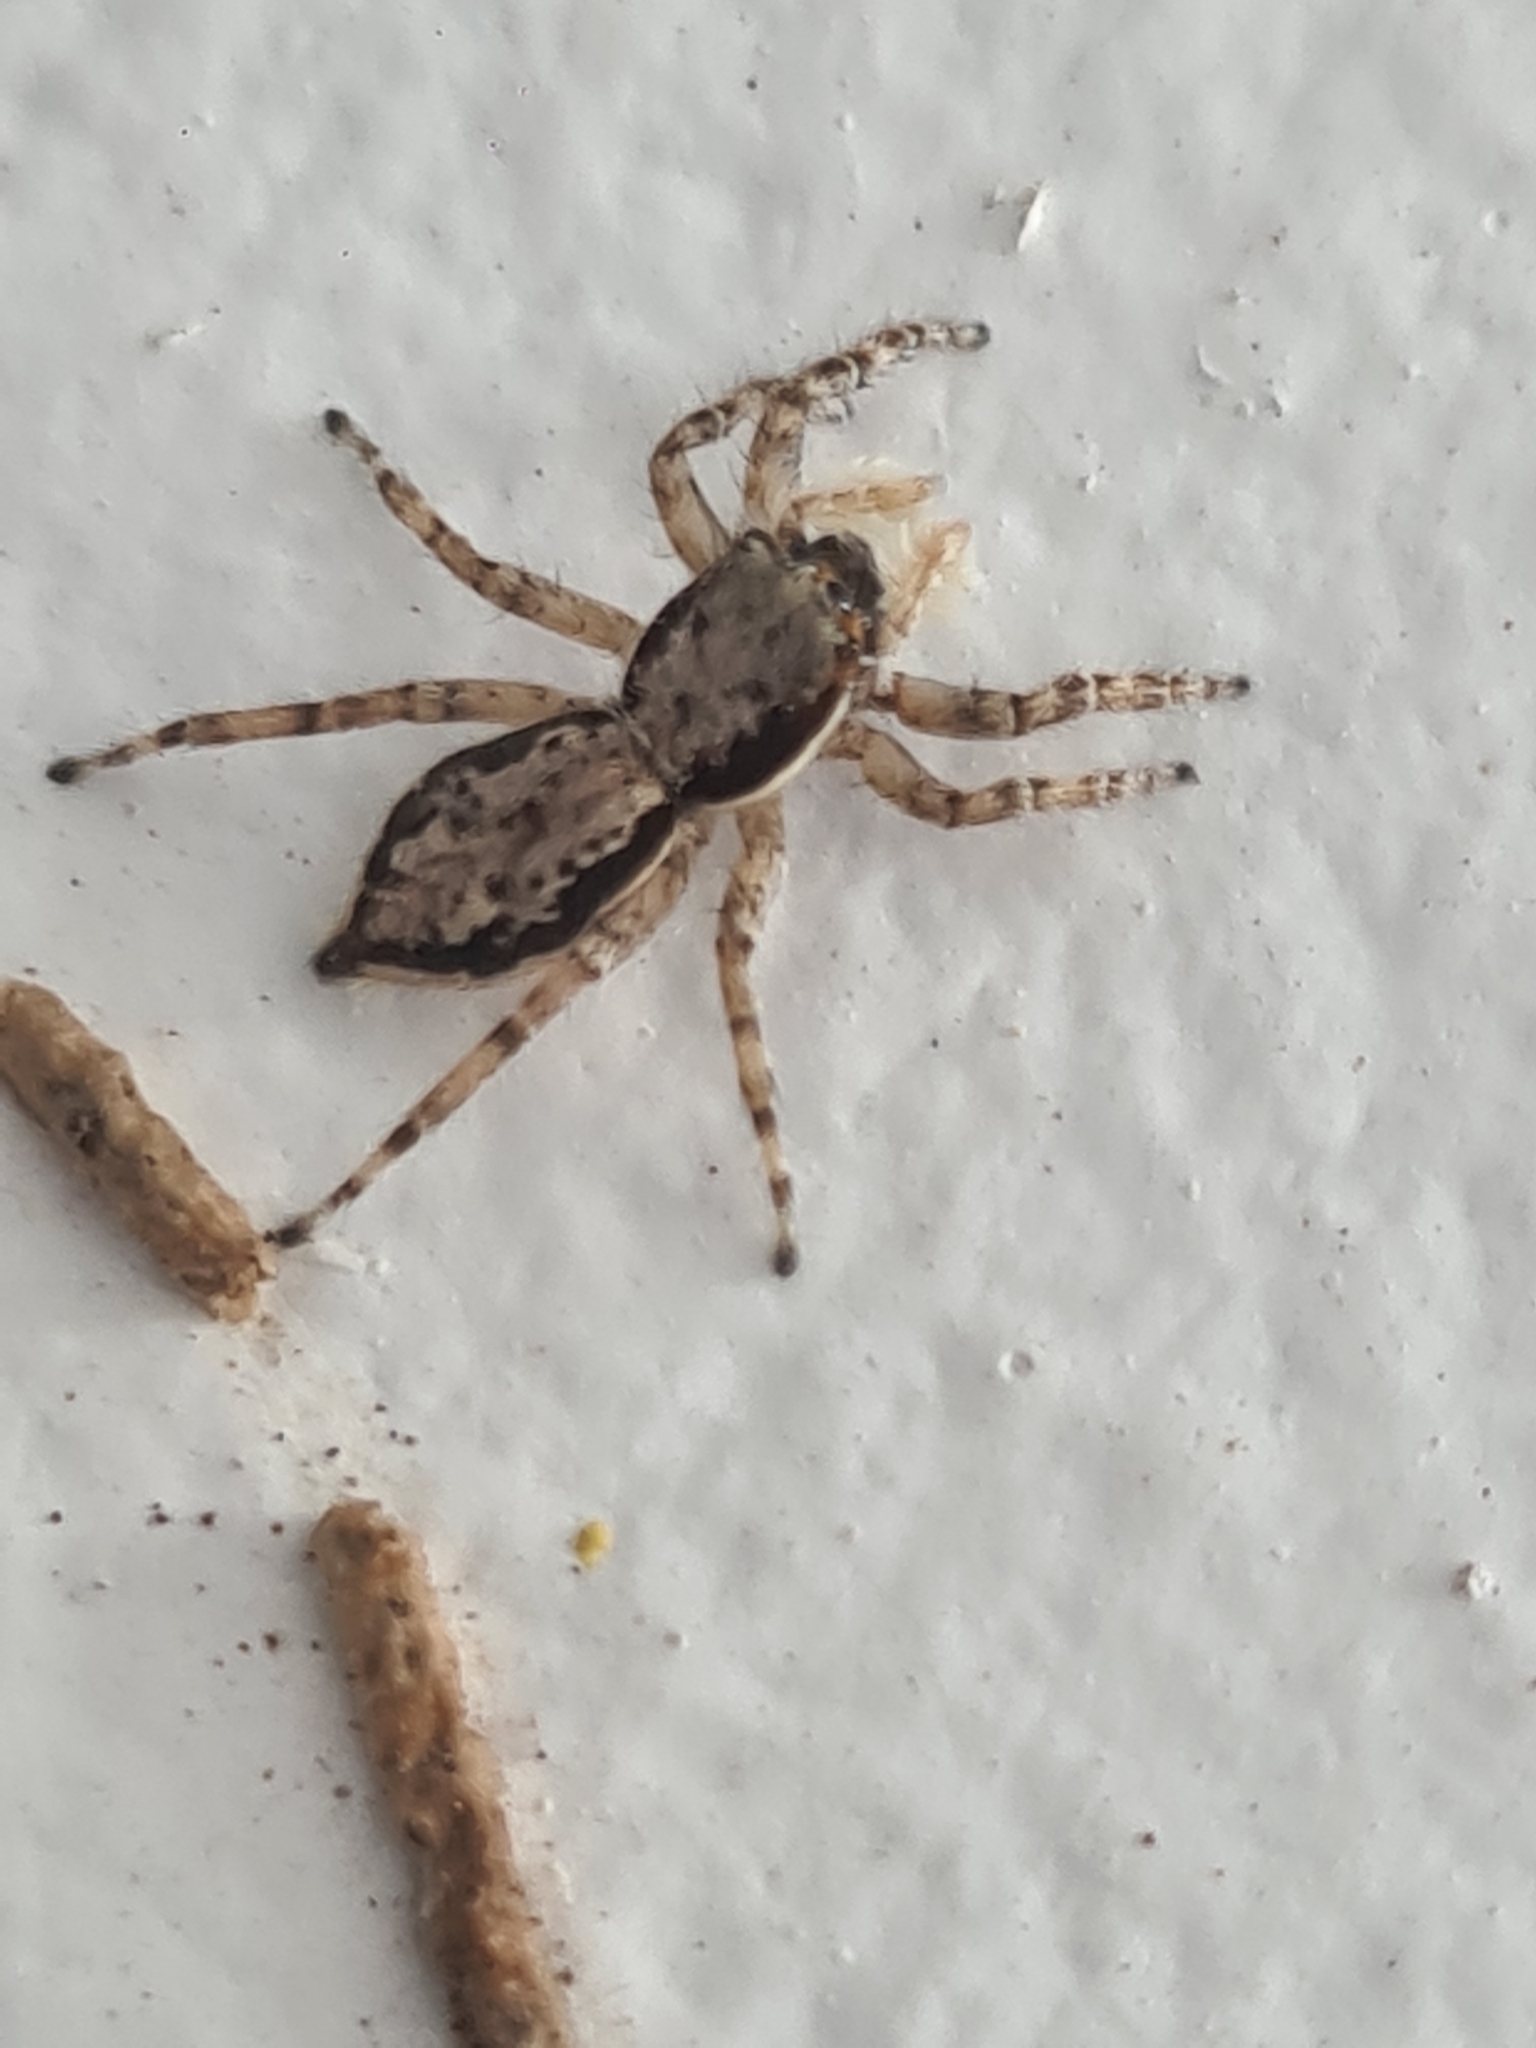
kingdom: Animalia
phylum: Arthropoda
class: Arachnida
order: Araneae
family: Salticidae
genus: Menemerus
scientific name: Menemerus bivittatus
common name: Gray wall jumper
